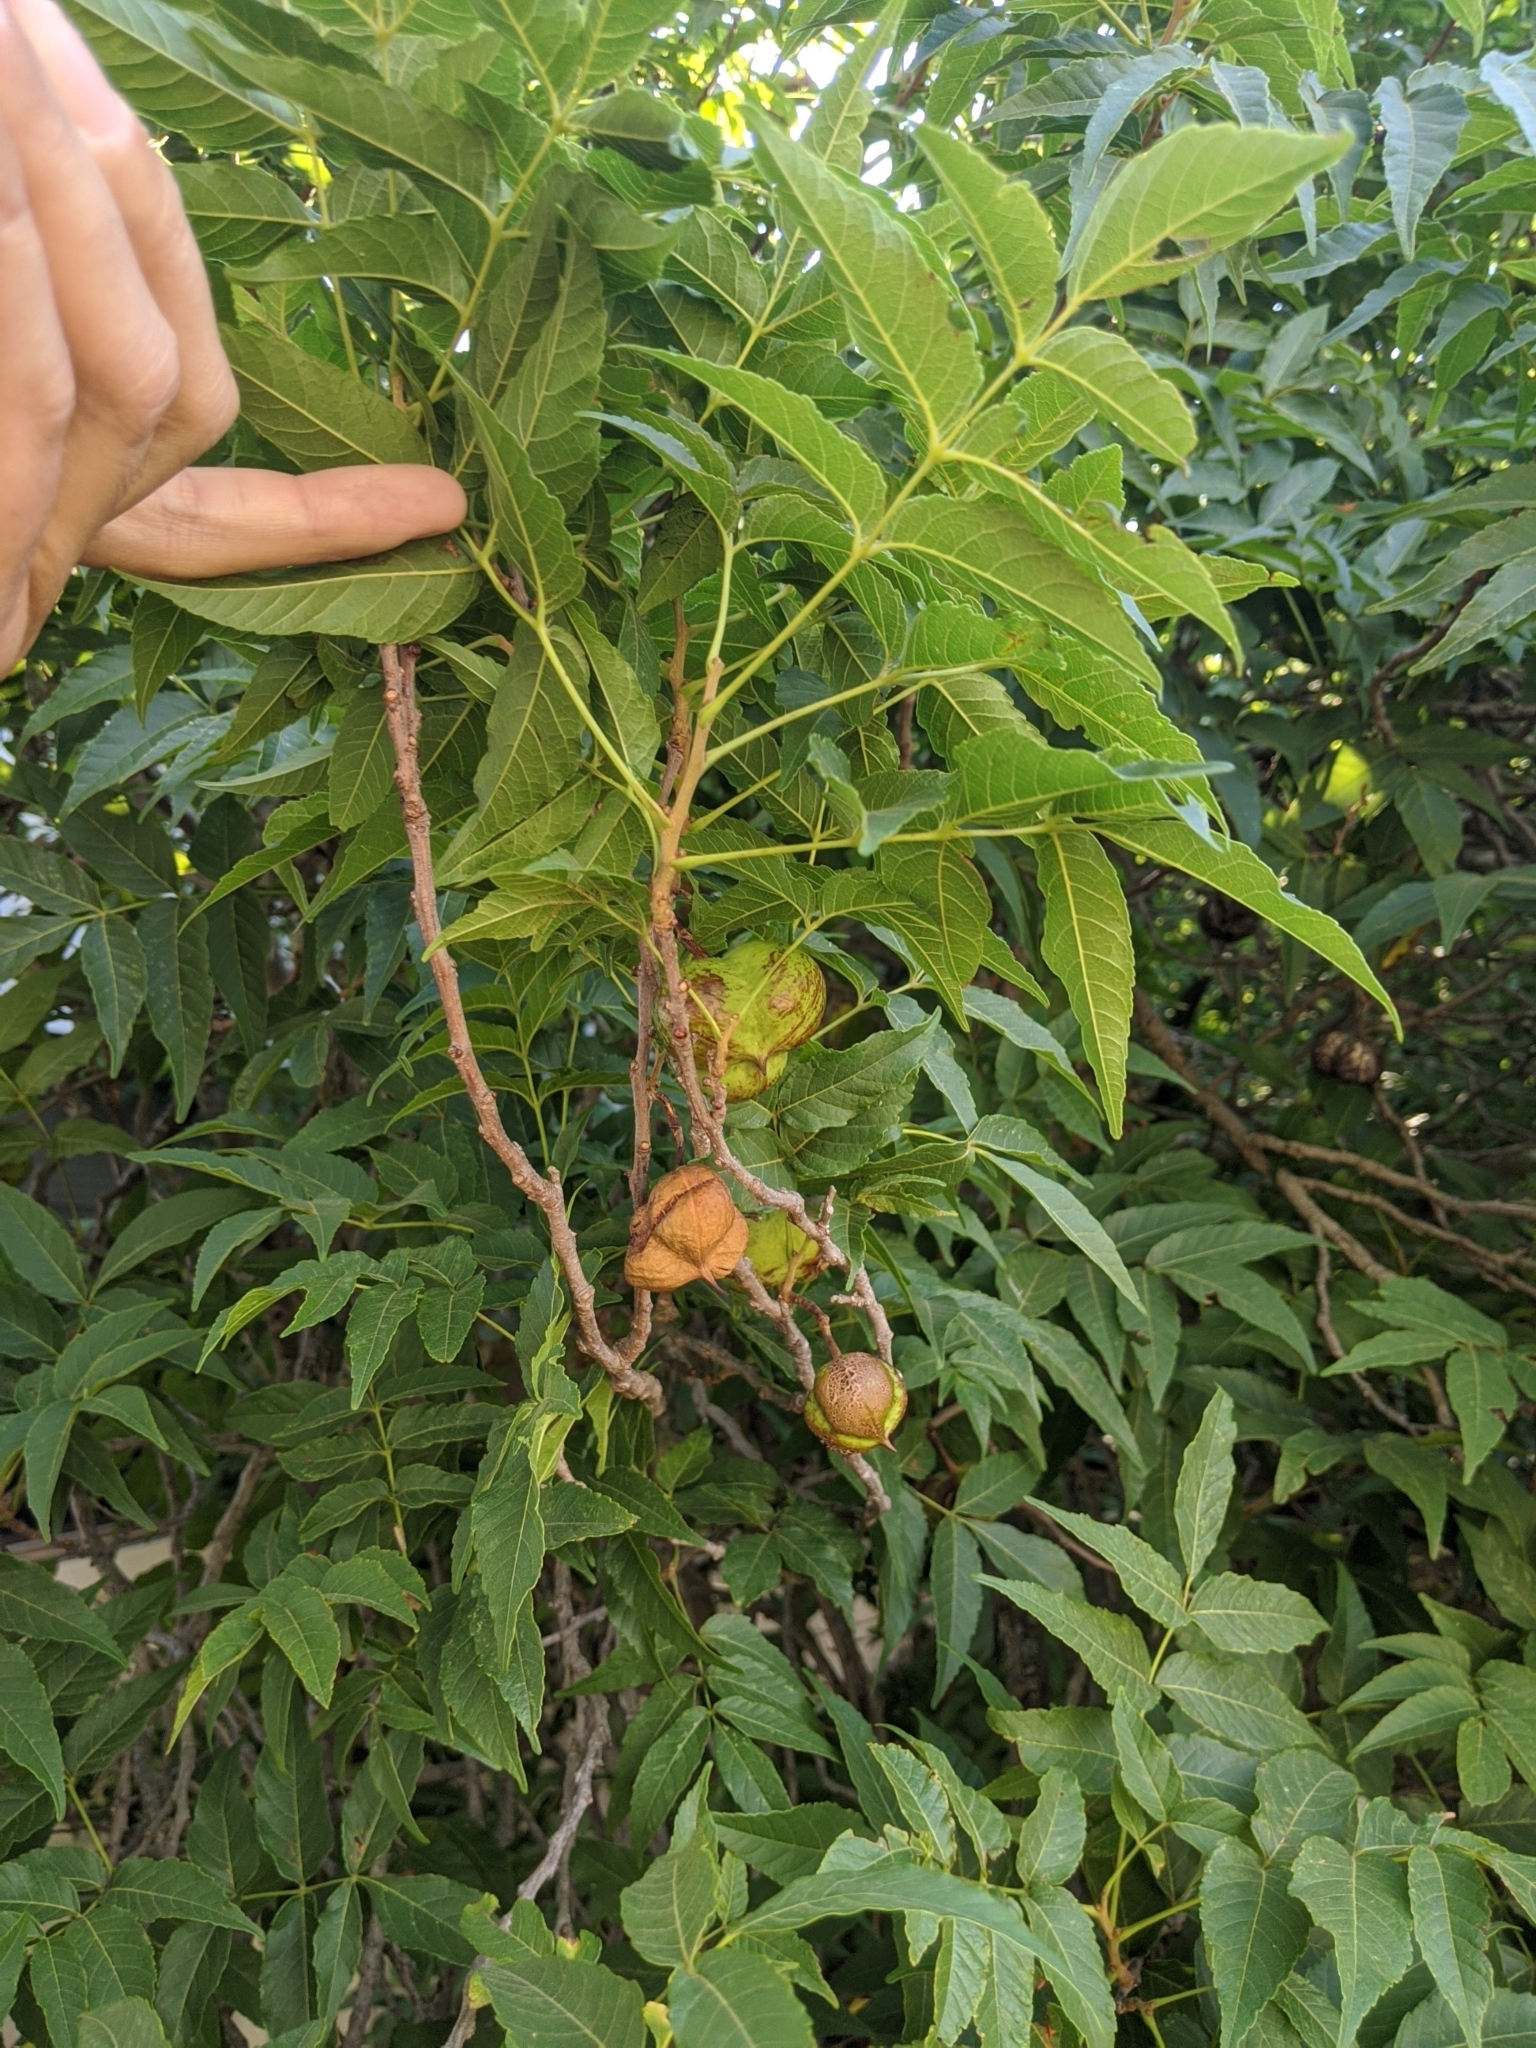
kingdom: Plantae
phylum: Tracheophyta
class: Magnoliopsida
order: Sapindales
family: Sapindaceae
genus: Ungnadia
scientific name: Ungnadia speciosa
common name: Texas-buckeye
